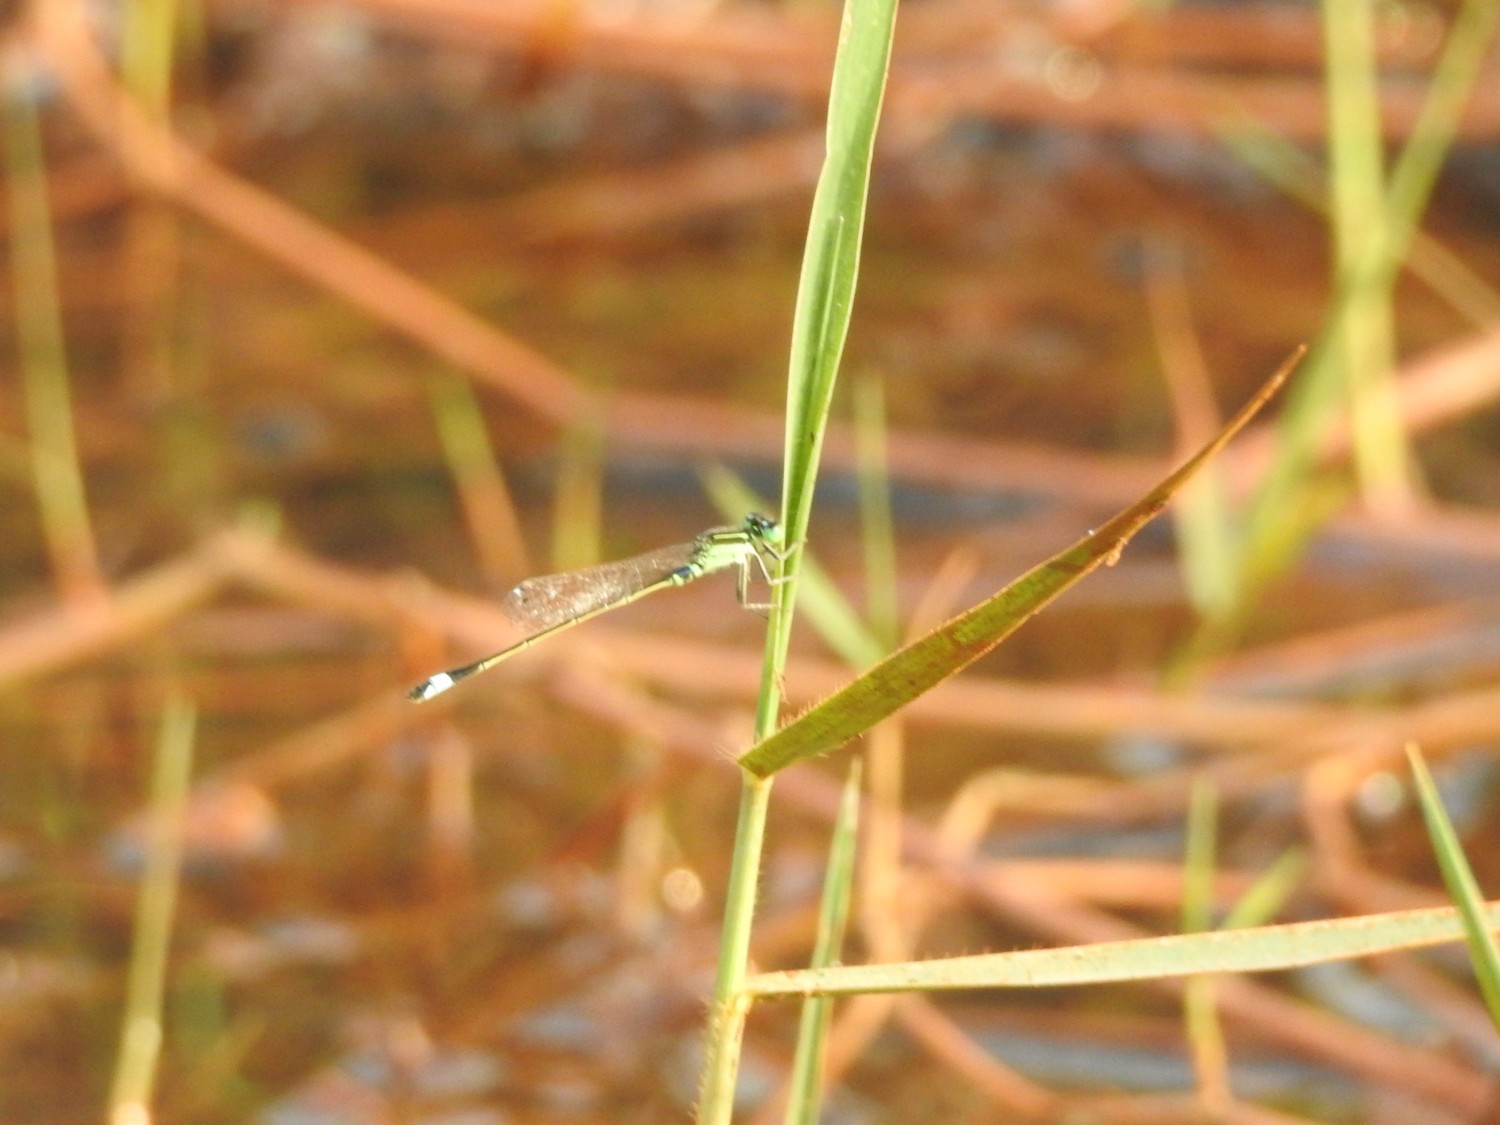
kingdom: Animalia
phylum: Arthropoda
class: Insecta
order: Odonata
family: Coenagrionidae
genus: Ischnura
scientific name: Ischnura senegalensis
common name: Tropical bluetail
